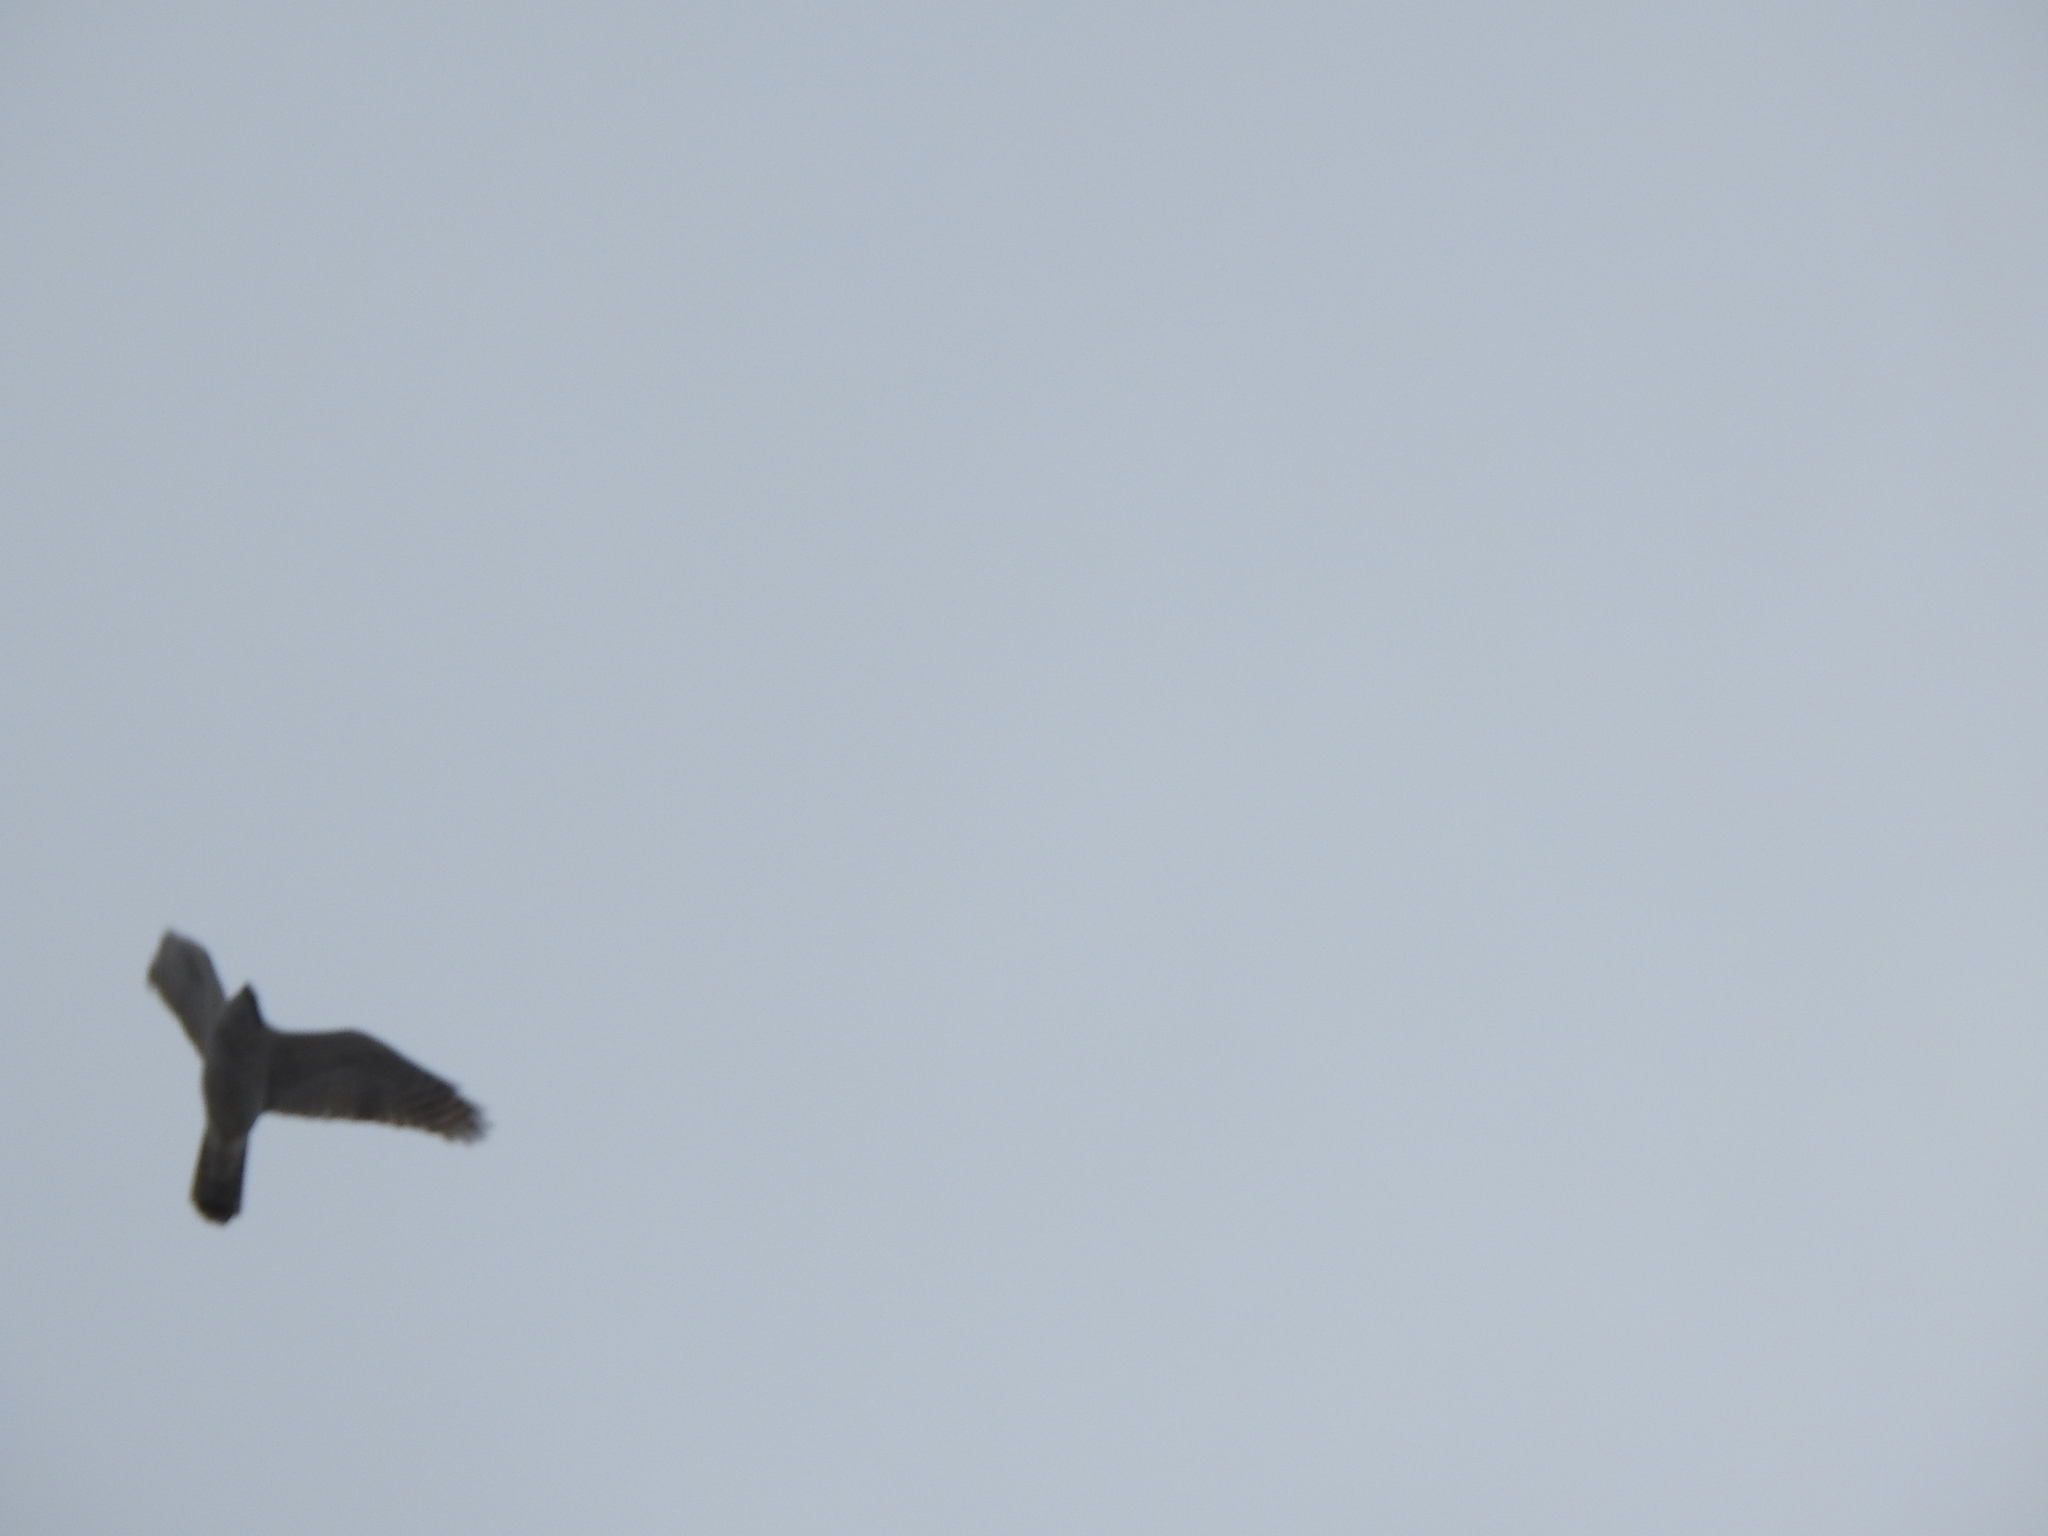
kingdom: Animalia
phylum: Chordata
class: Aves
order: Accipitriformes
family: Accipitridae
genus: Accipiter
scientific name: Accipiter gentilis
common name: Northern goshawk
